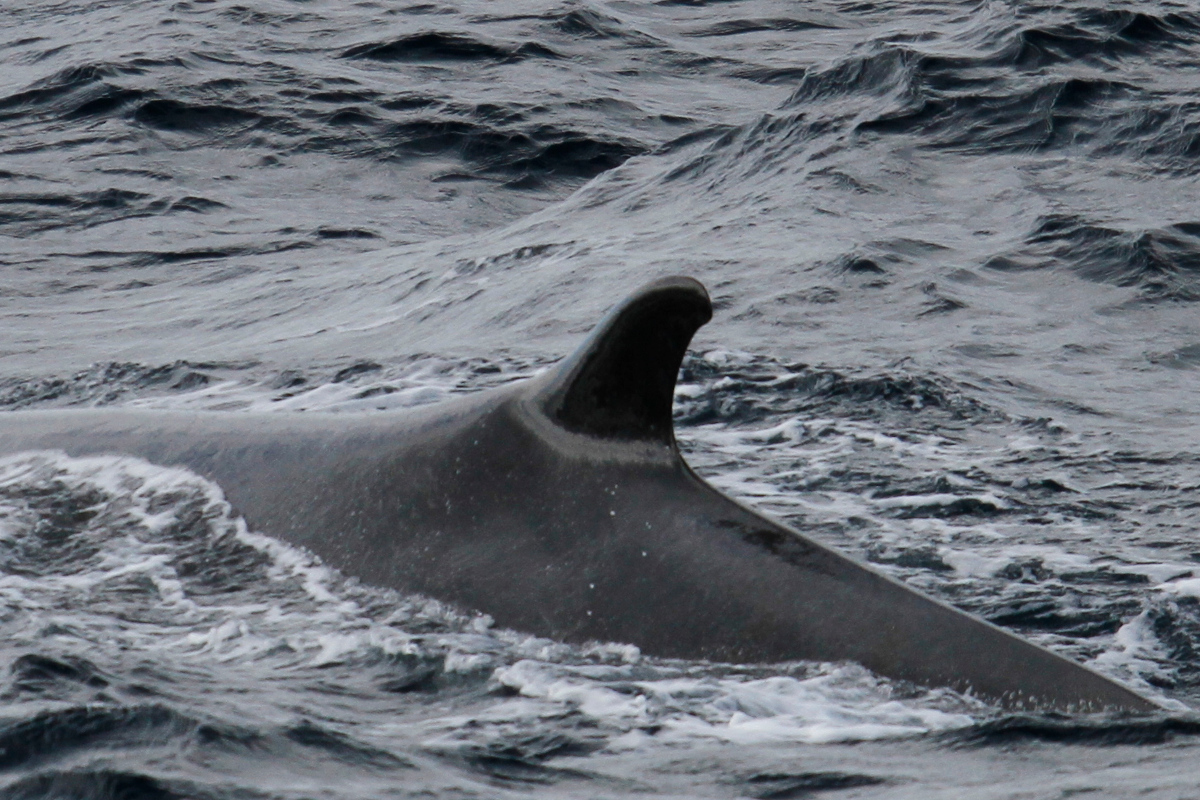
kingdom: Animalia
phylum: Chordata
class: Mammalia
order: Cetacea
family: Balaenopteridae
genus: Balaenoptera
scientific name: Balaenoptera physalus
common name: Fin whale
